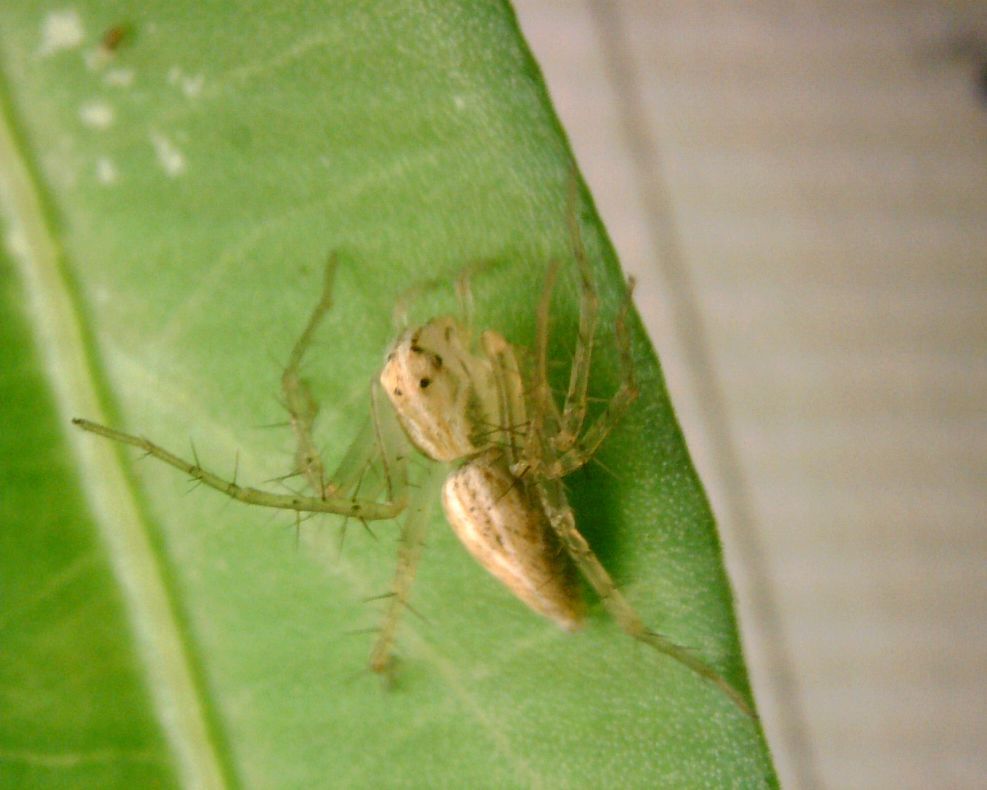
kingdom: Animalia
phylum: Arthropoda
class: Arachnida
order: Araneae
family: Oxyopidae
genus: Oxyopes
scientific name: Oxyopes sertatus
